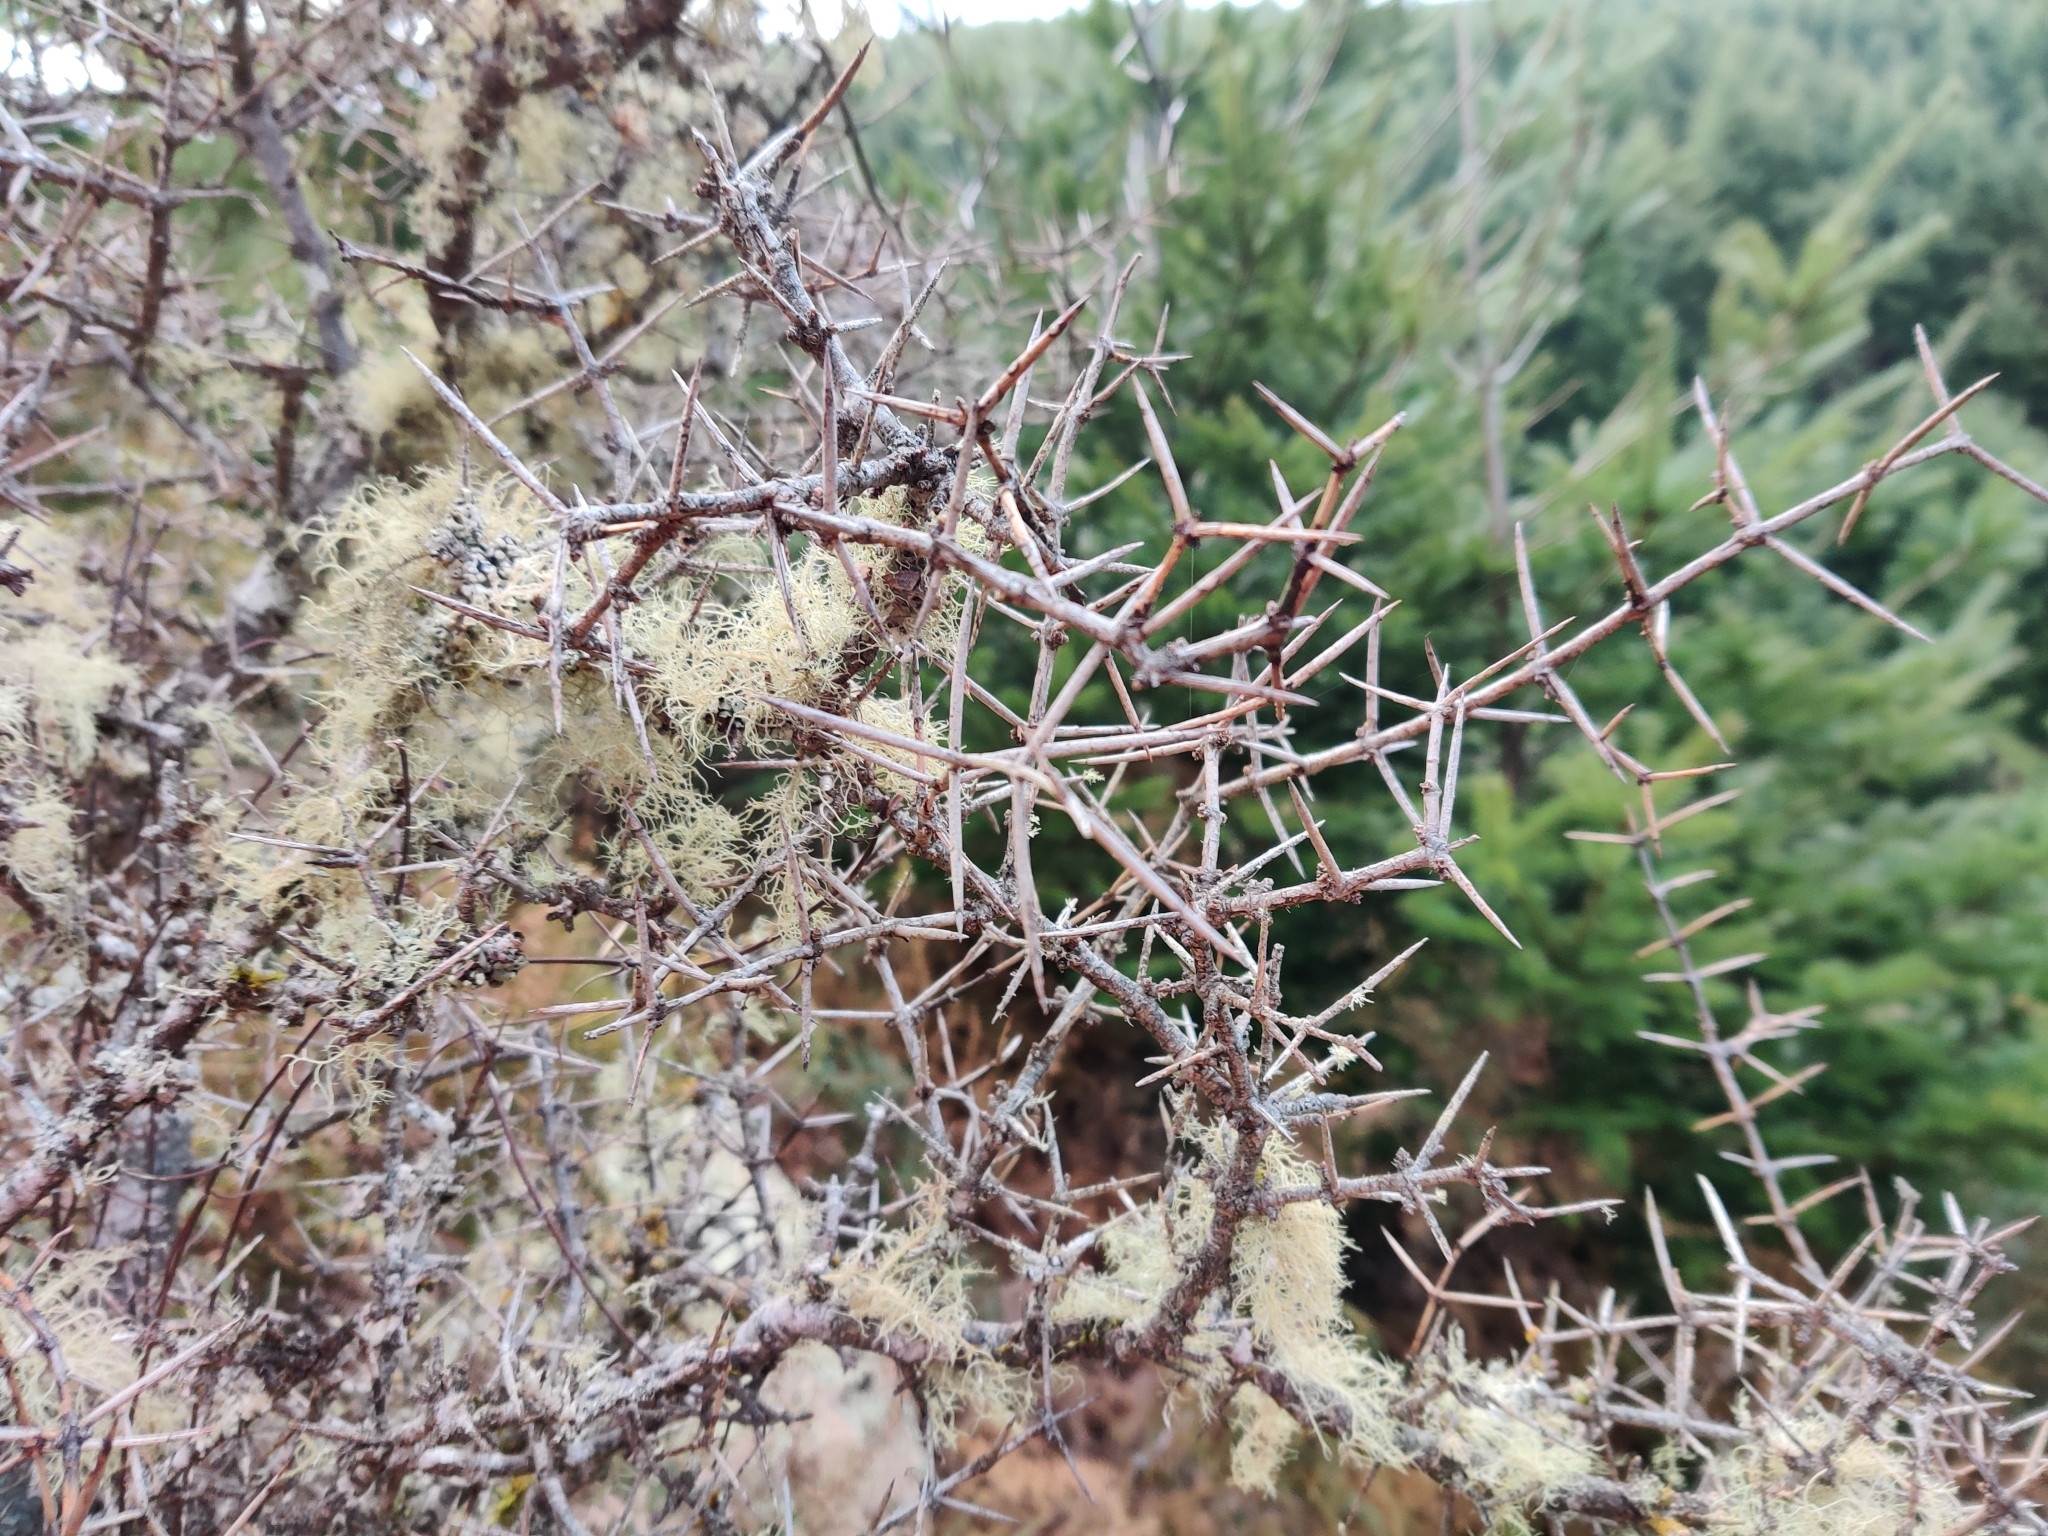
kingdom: Plantae
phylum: Tracheophyta
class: Magnoliopsida
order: Rosales
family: Rhamnaceae
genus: Discaria
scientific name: Discaria toumatou
